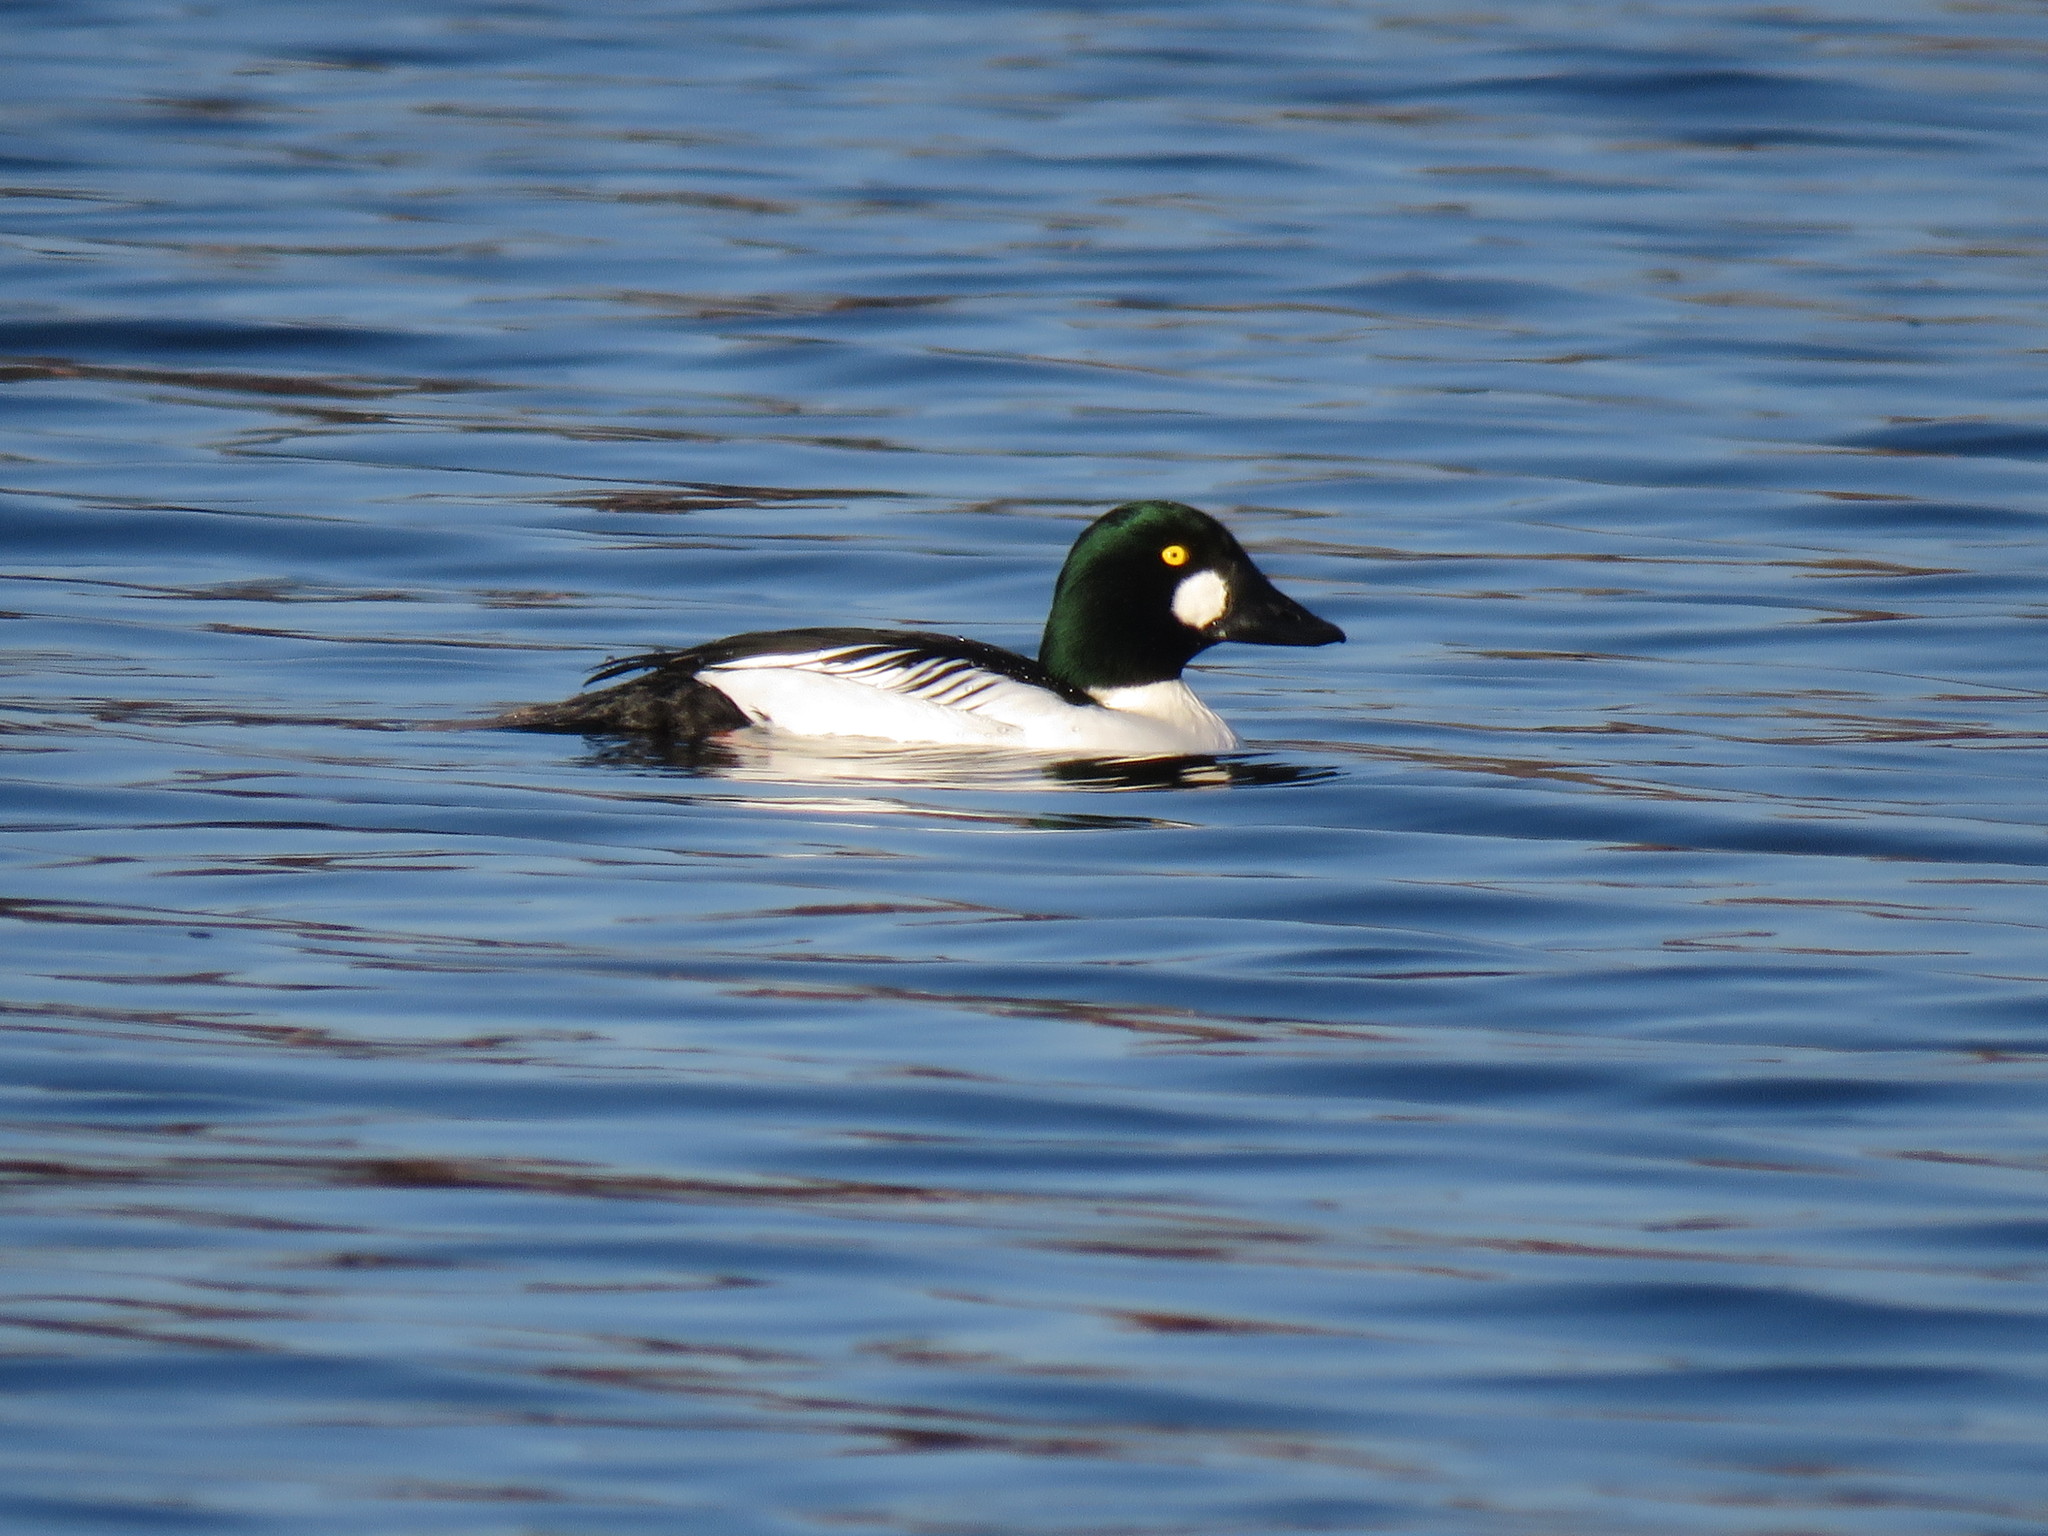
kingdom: Animalia
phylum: Chordata
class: Aves
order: Anseriformes
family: Anatidae
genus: Bucephala
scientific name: Bucephala clangula
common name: Common goldeneye
